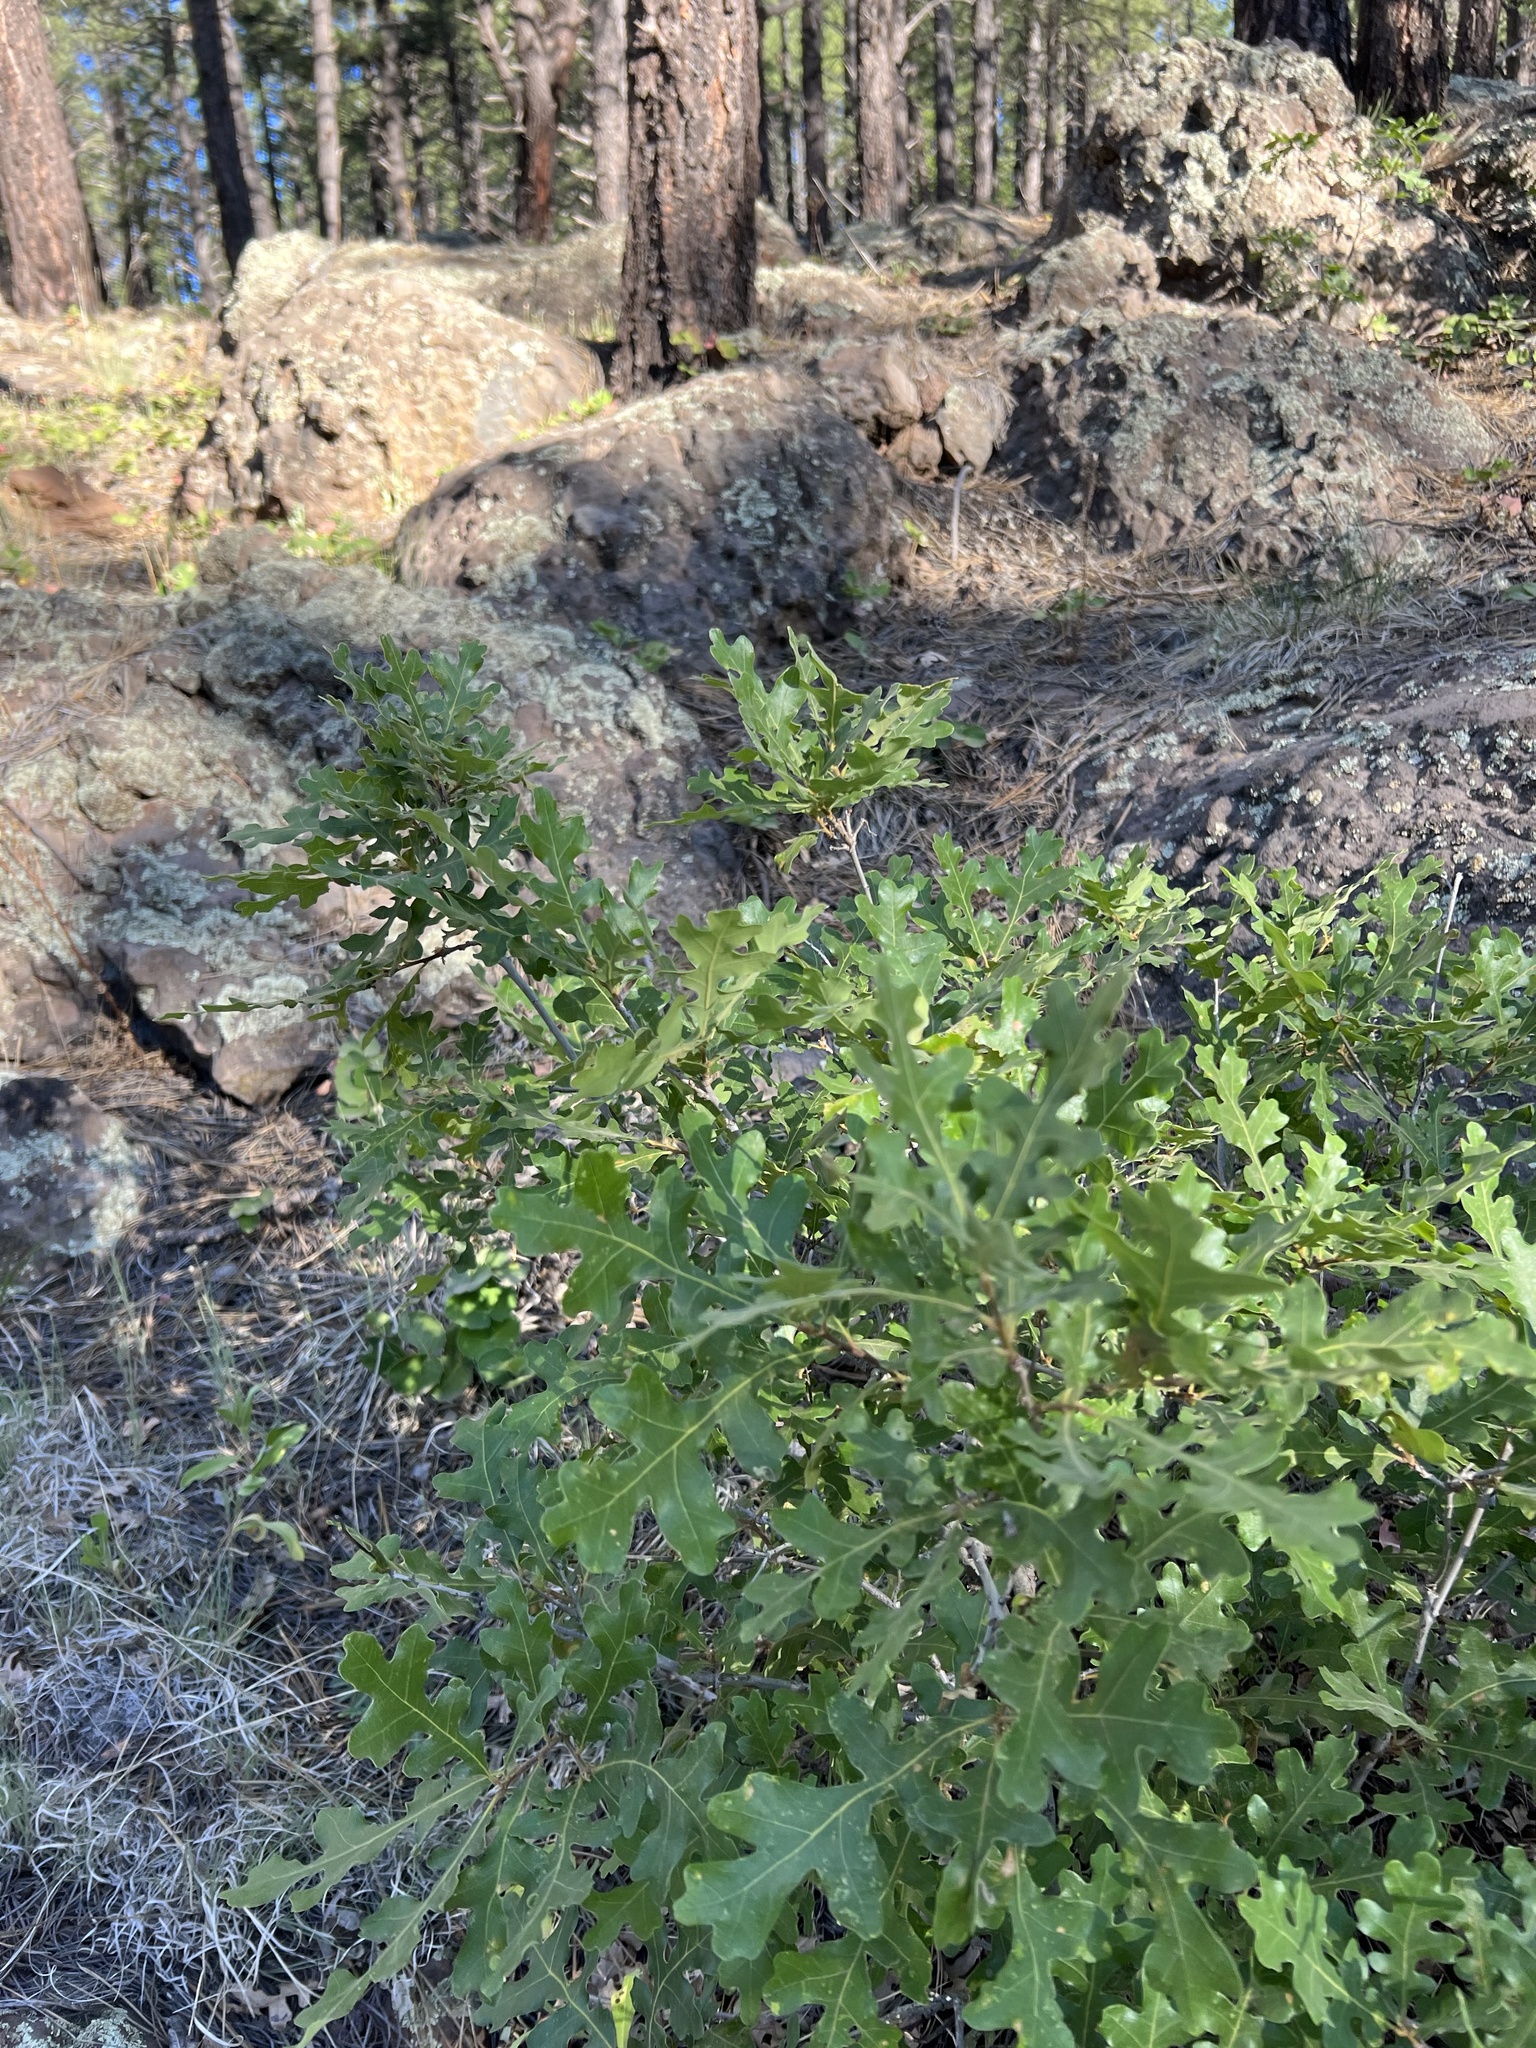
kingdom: Plantae
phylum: Tracheophyta
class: Magnoliopsida
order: Fagales
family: Fagaceae
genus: Quercus
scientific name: Quercus gambelii
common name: Gambel oak
